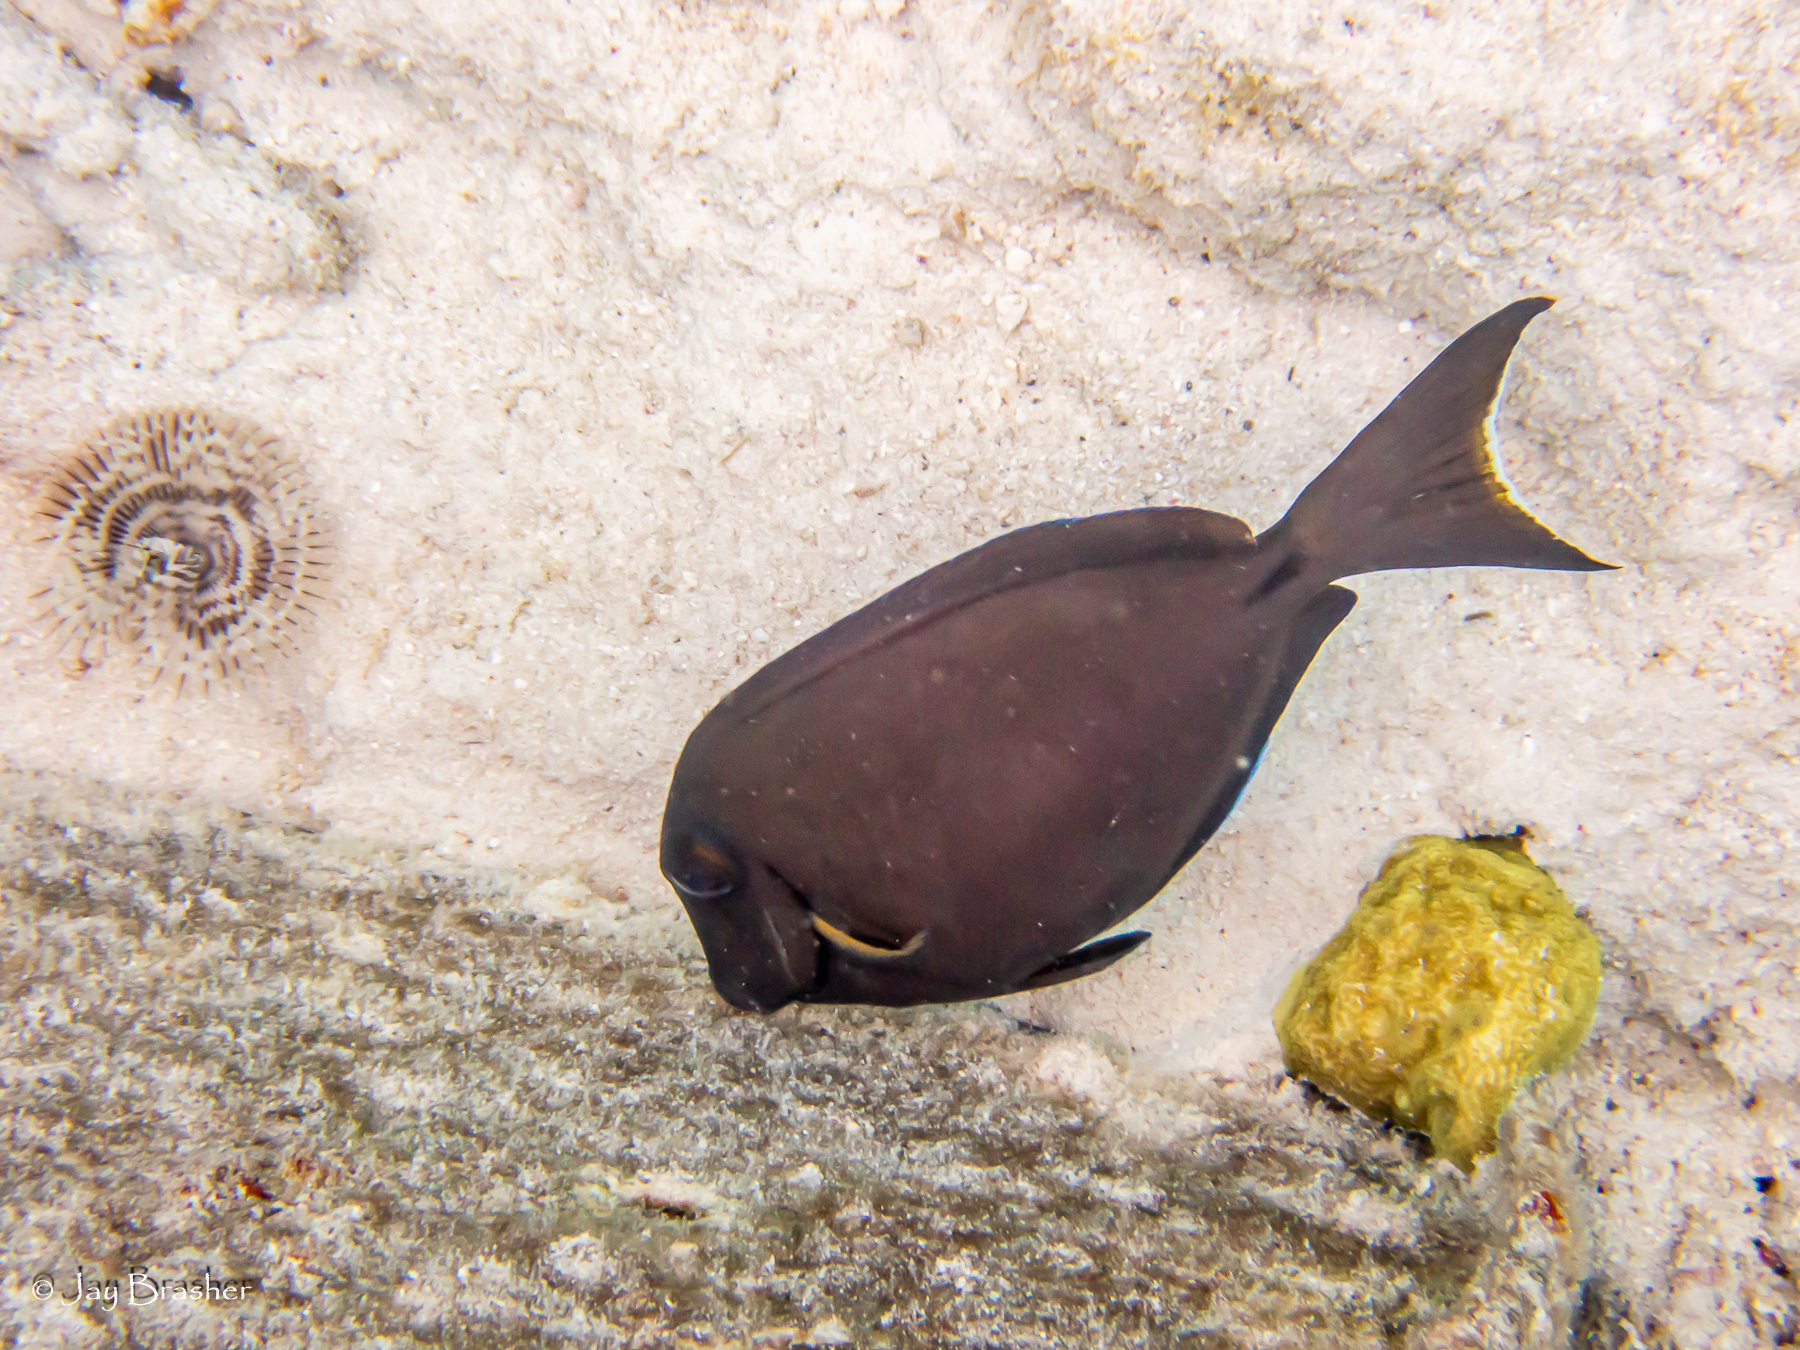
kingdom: Animalia
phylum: Chordata
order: Perciformes
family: Acanthuridae
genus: Acanthurus
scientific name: Acanthurus bahianus
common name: Ocean surgeon
